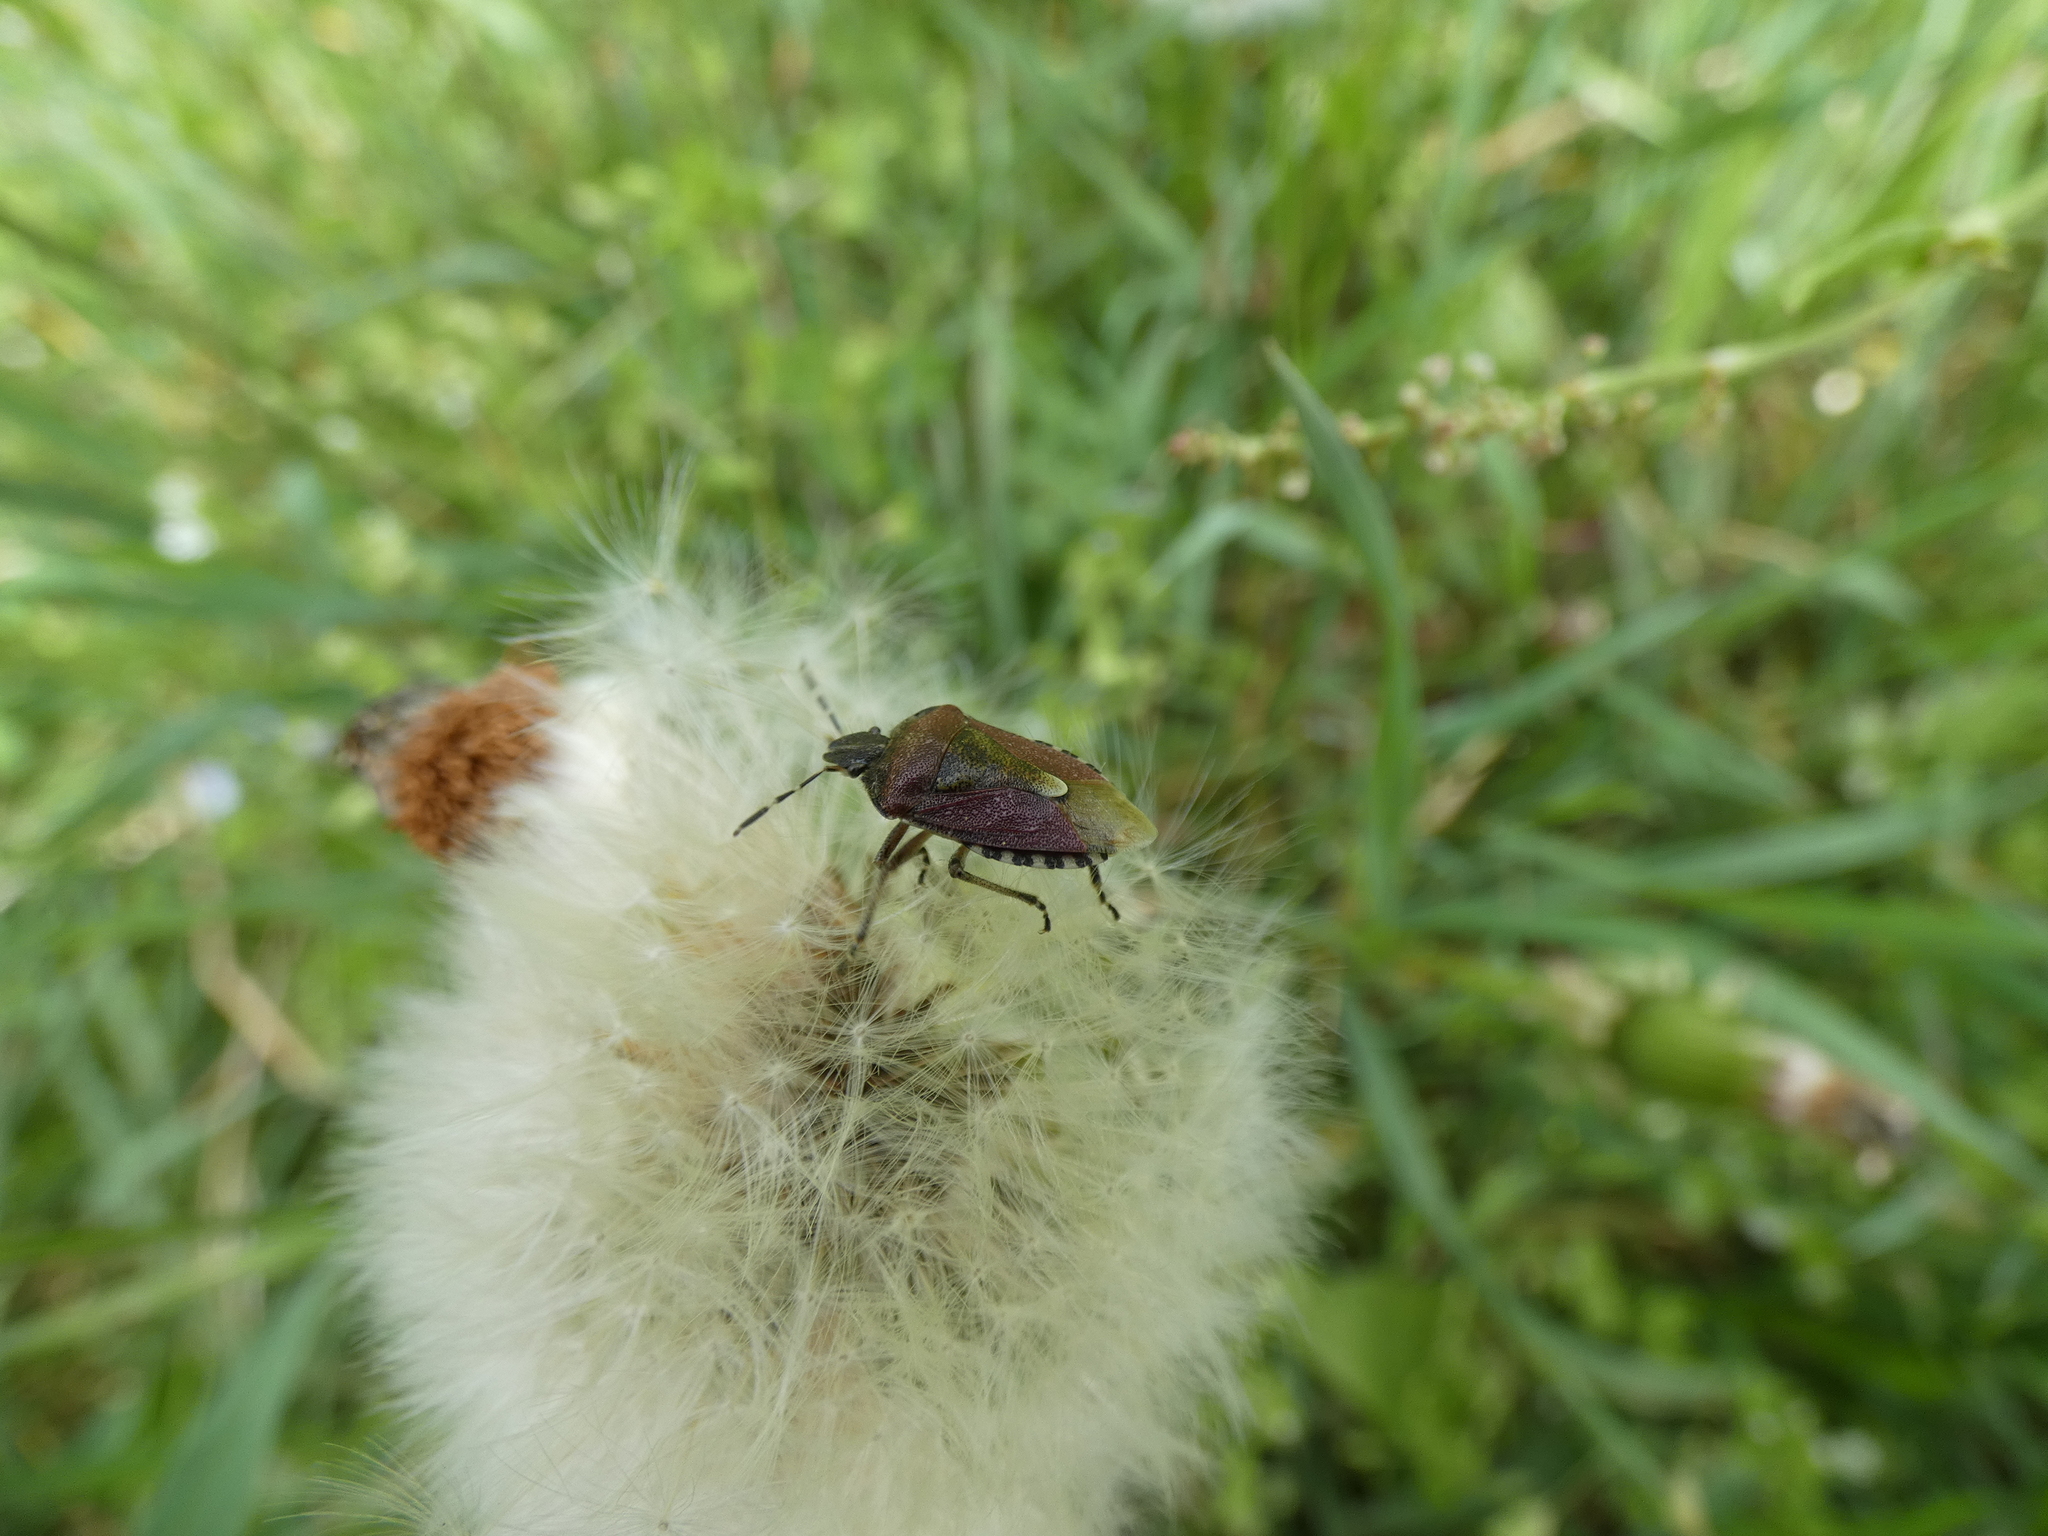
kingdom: Animalia
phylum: Arthropoda
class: Insecta
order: Hemiptera
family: Pentatomidae
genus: Dolycoris
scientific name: Dolycoris baccarum
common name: Sloe bug
